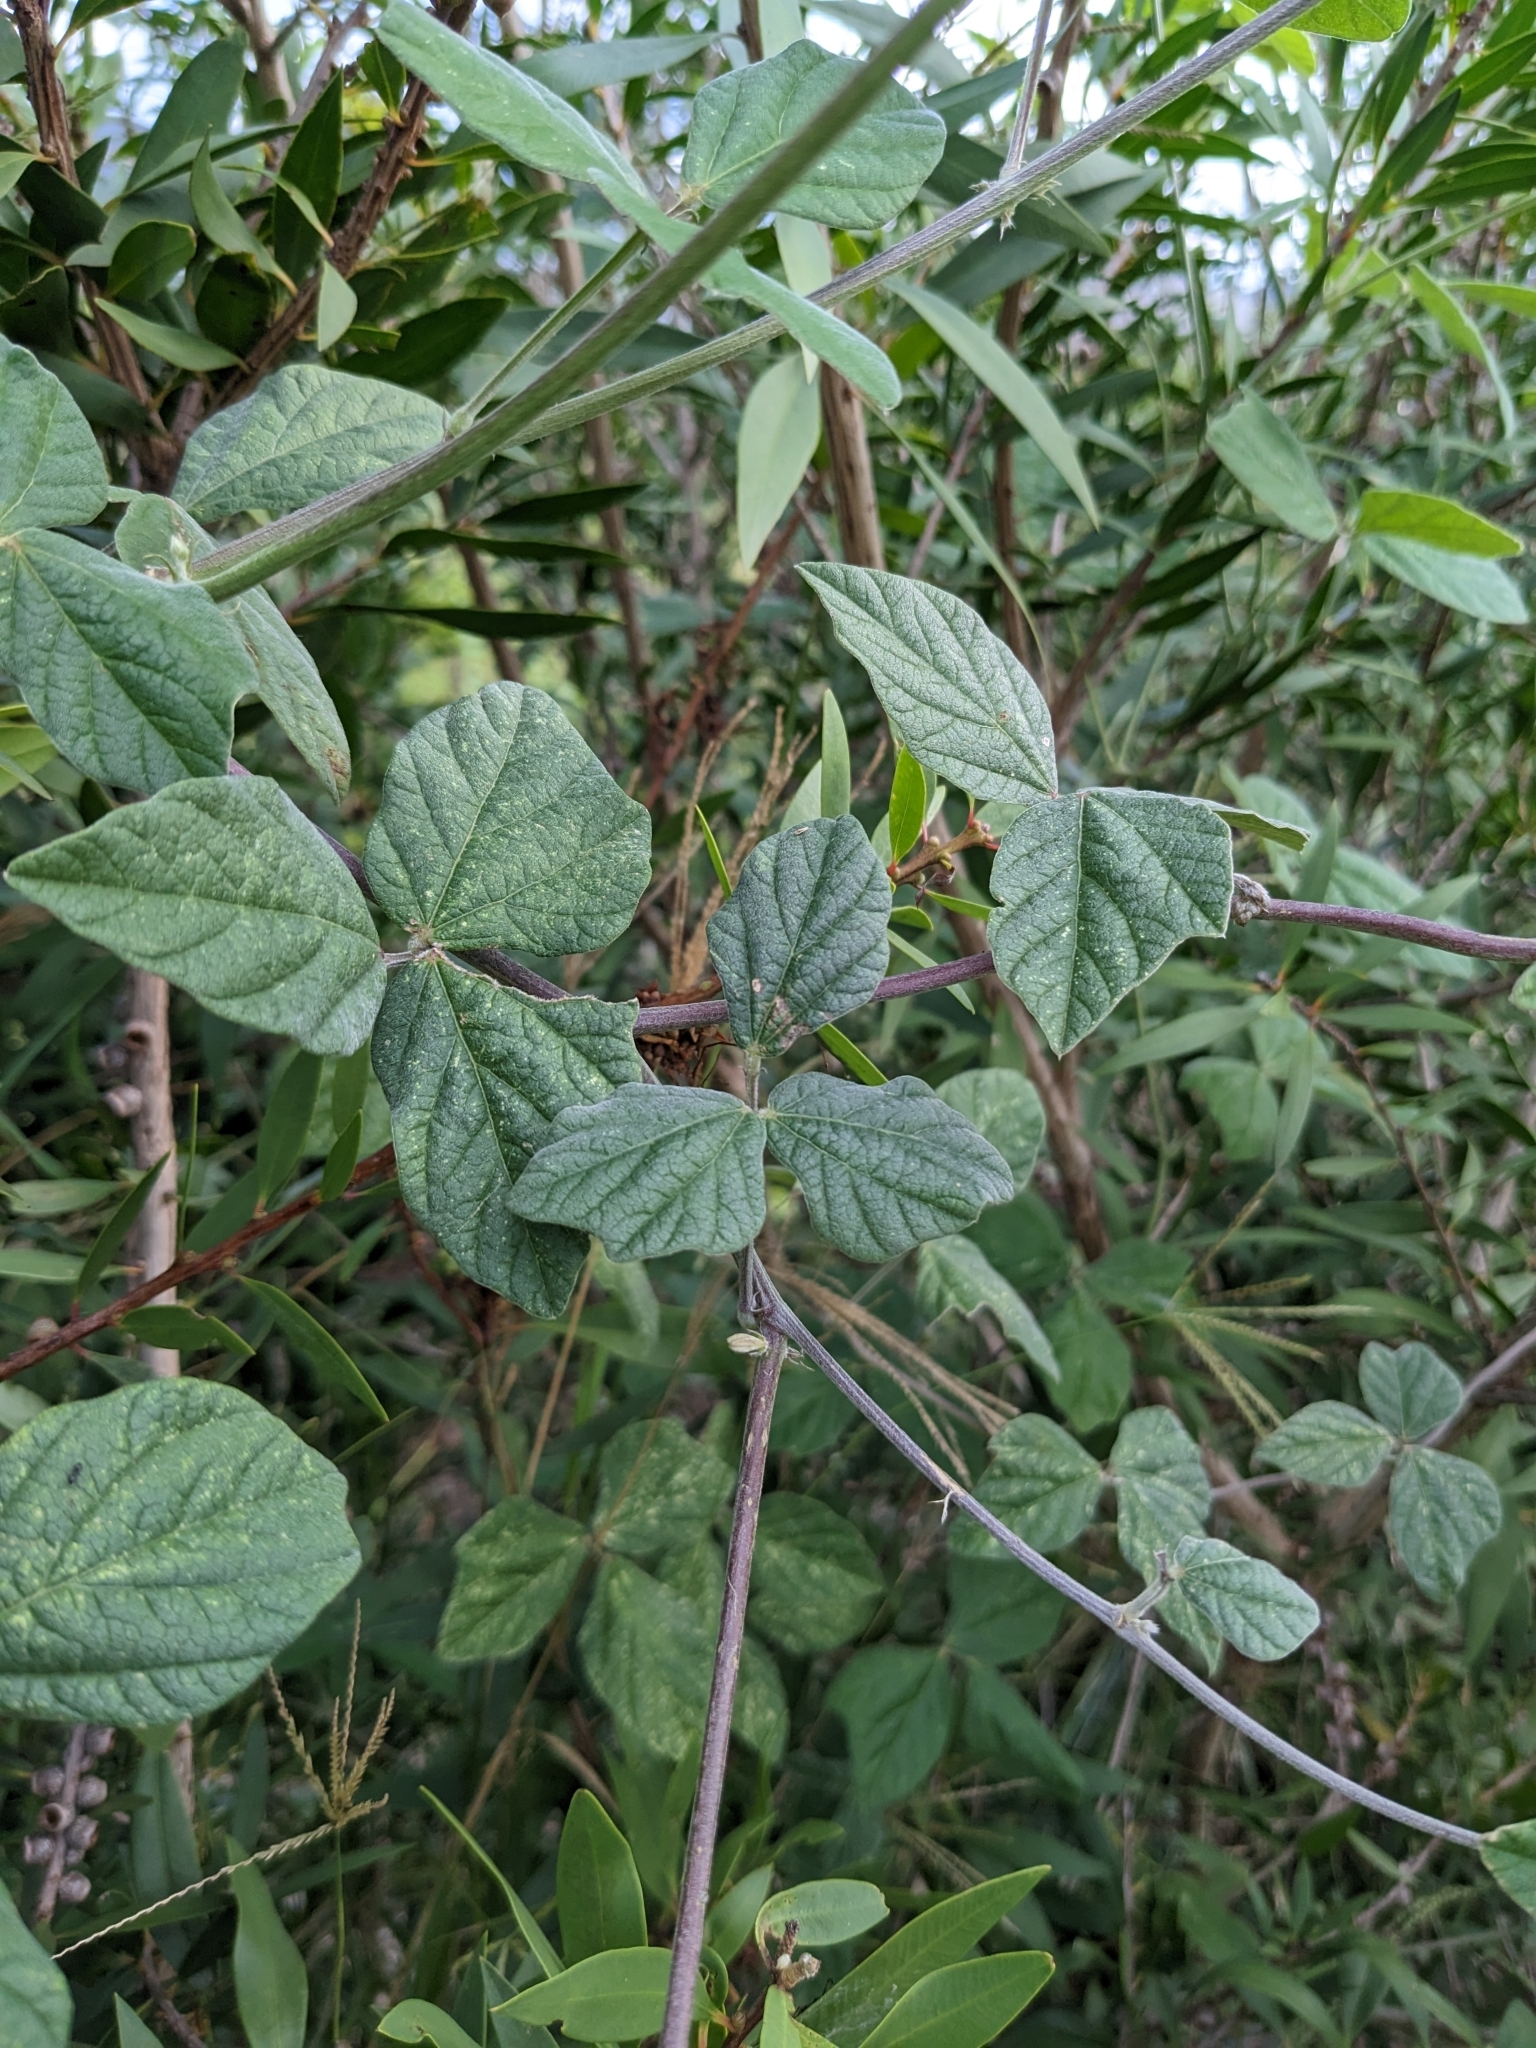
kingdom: Plantae
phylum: Tracheophyta
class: Magnoliopsida
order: Fabales
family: Fabaceae
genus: Macroptilium
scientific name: Macroptilium atropurpureum
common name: Purple bushbean
